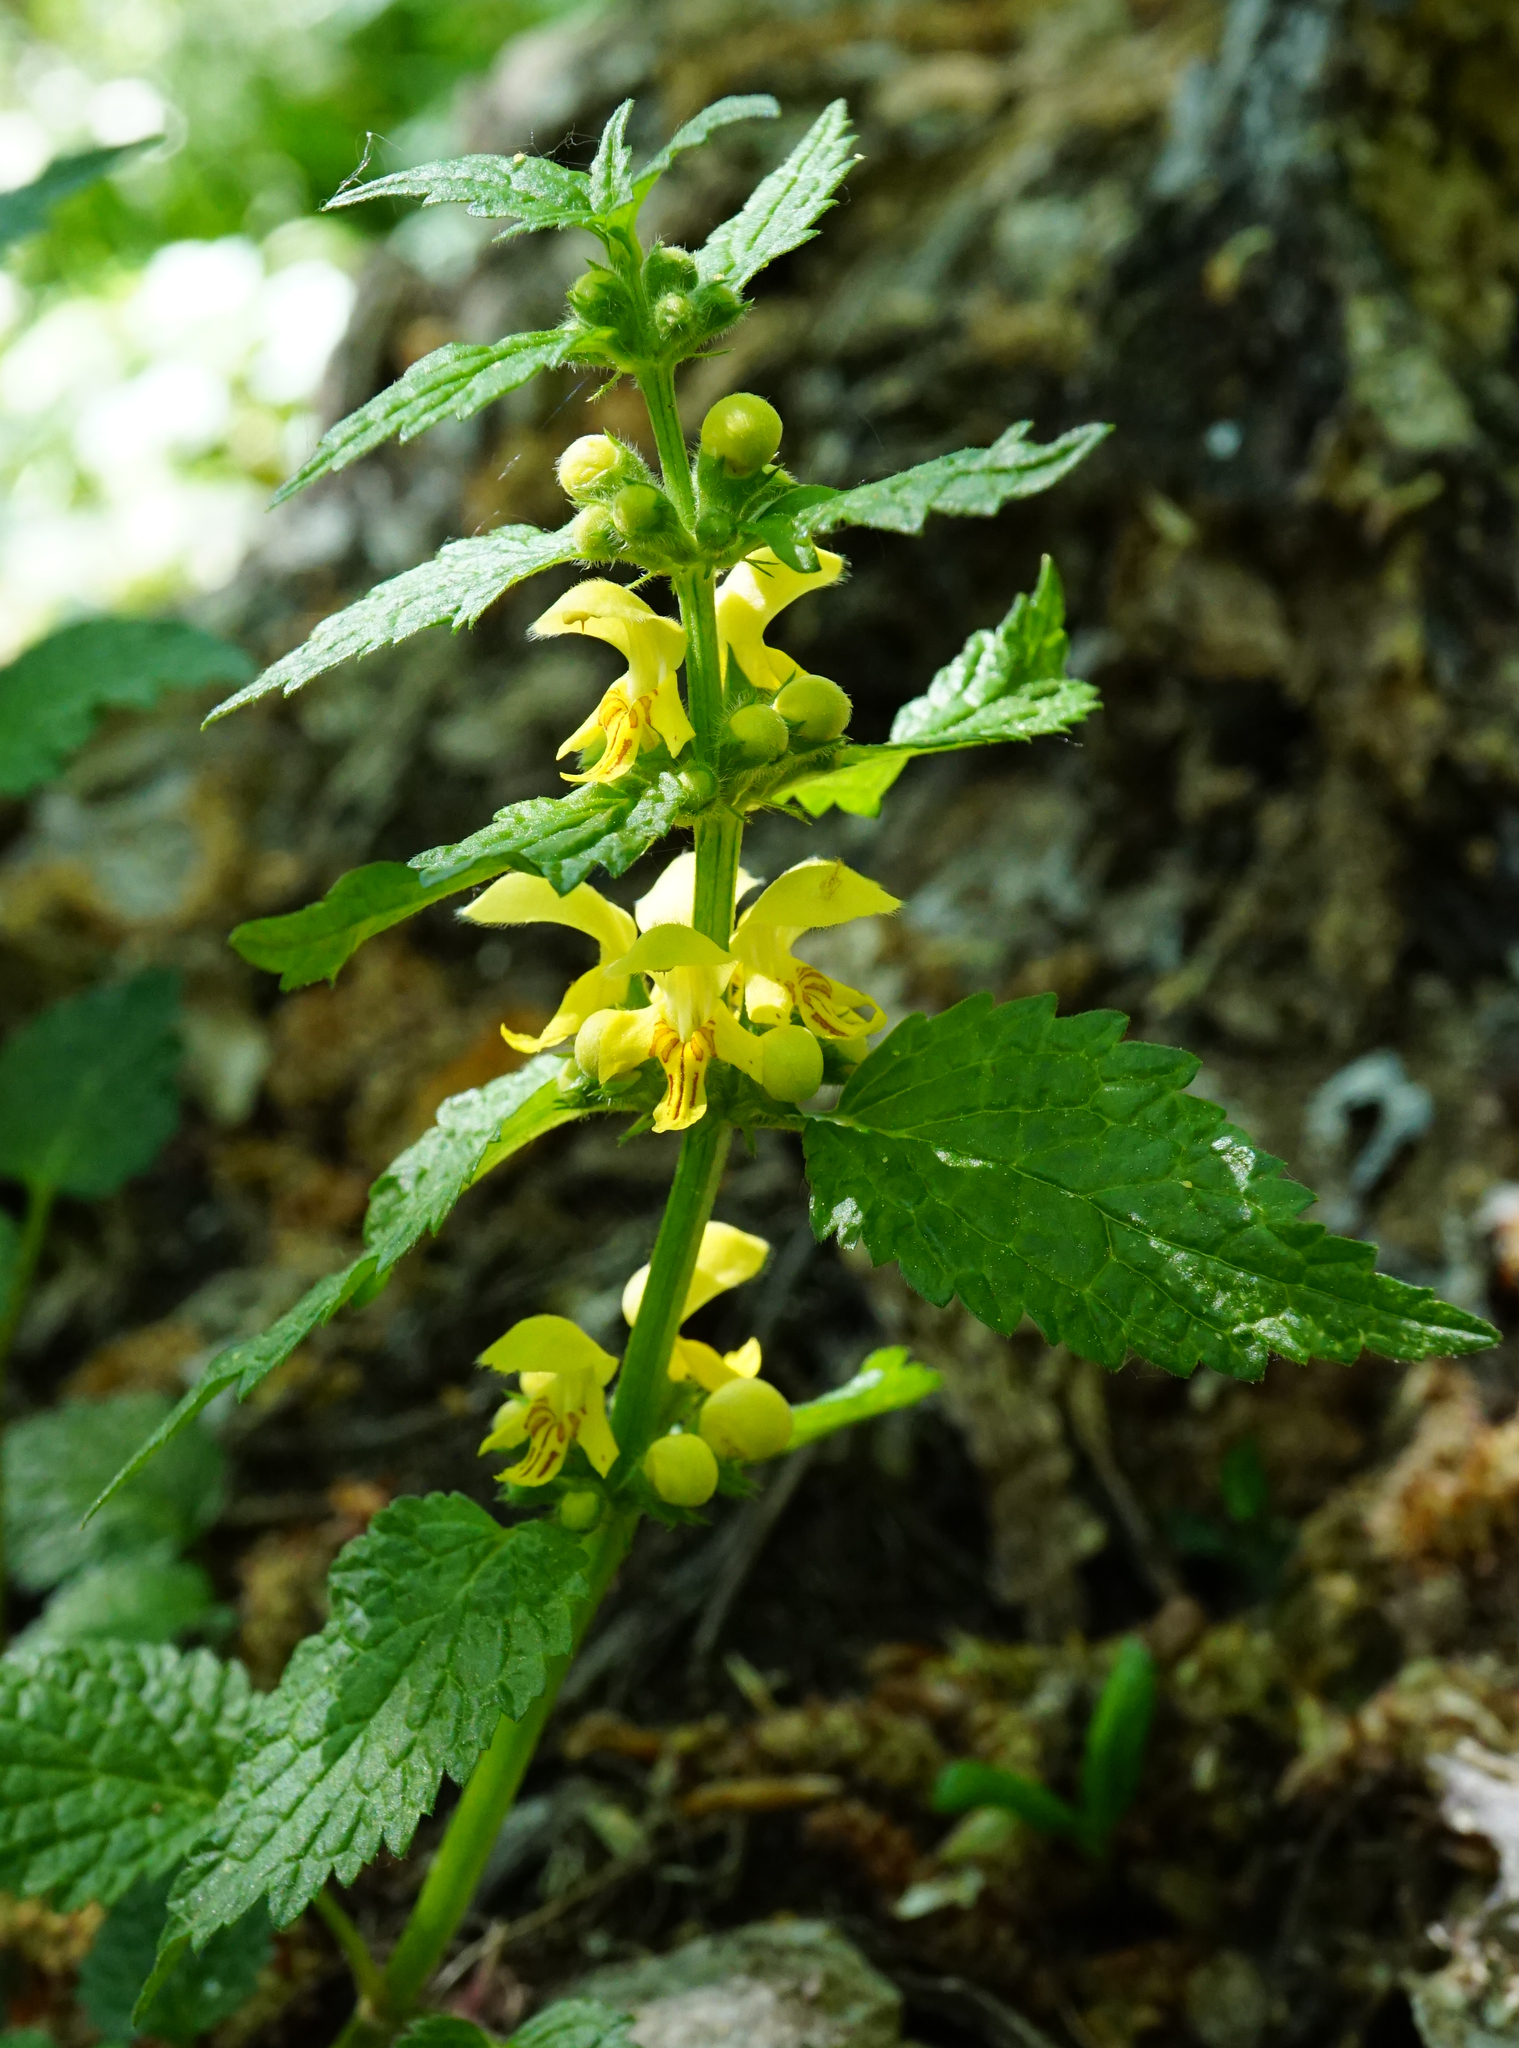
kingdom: Plantae
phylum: Tracheophyta
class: Magnoliopsida
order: Lamiales
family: Lamiaceae
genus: Lamium
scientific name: Lamium galeobdolon
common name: Yellow archangel
